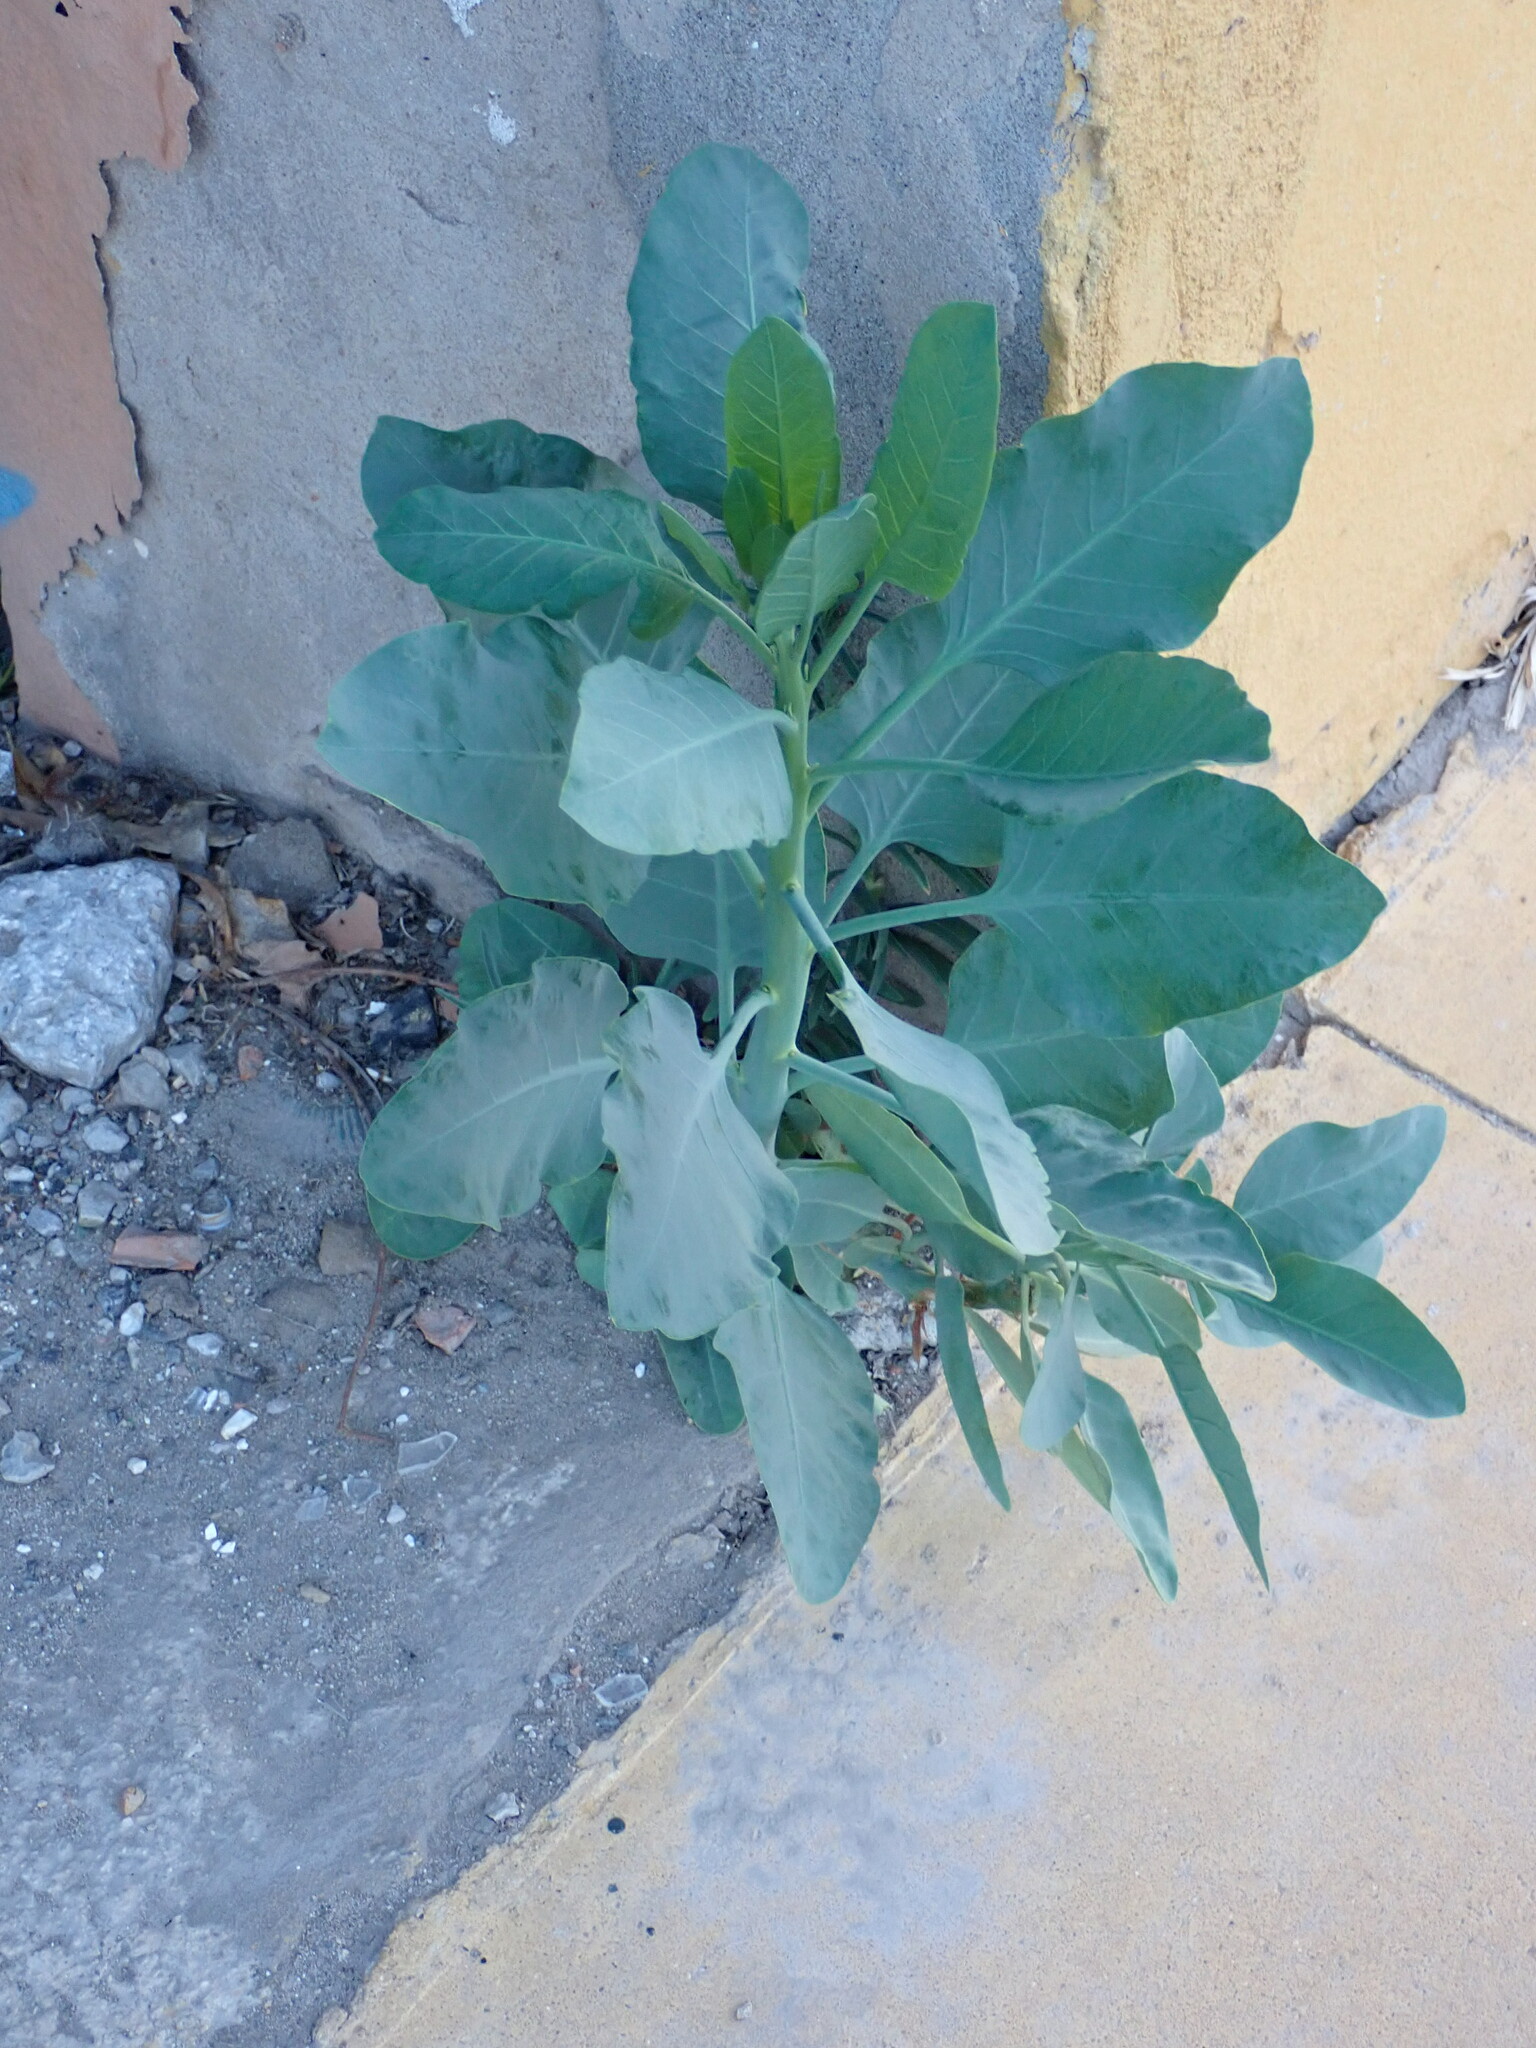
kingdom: Plantae
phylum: Tracheophyta
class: Magnoliopsida
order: Solanales
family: Solanaceae
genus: Nicotiana
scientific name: Nicotiana glauca
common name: Tree tobacco
